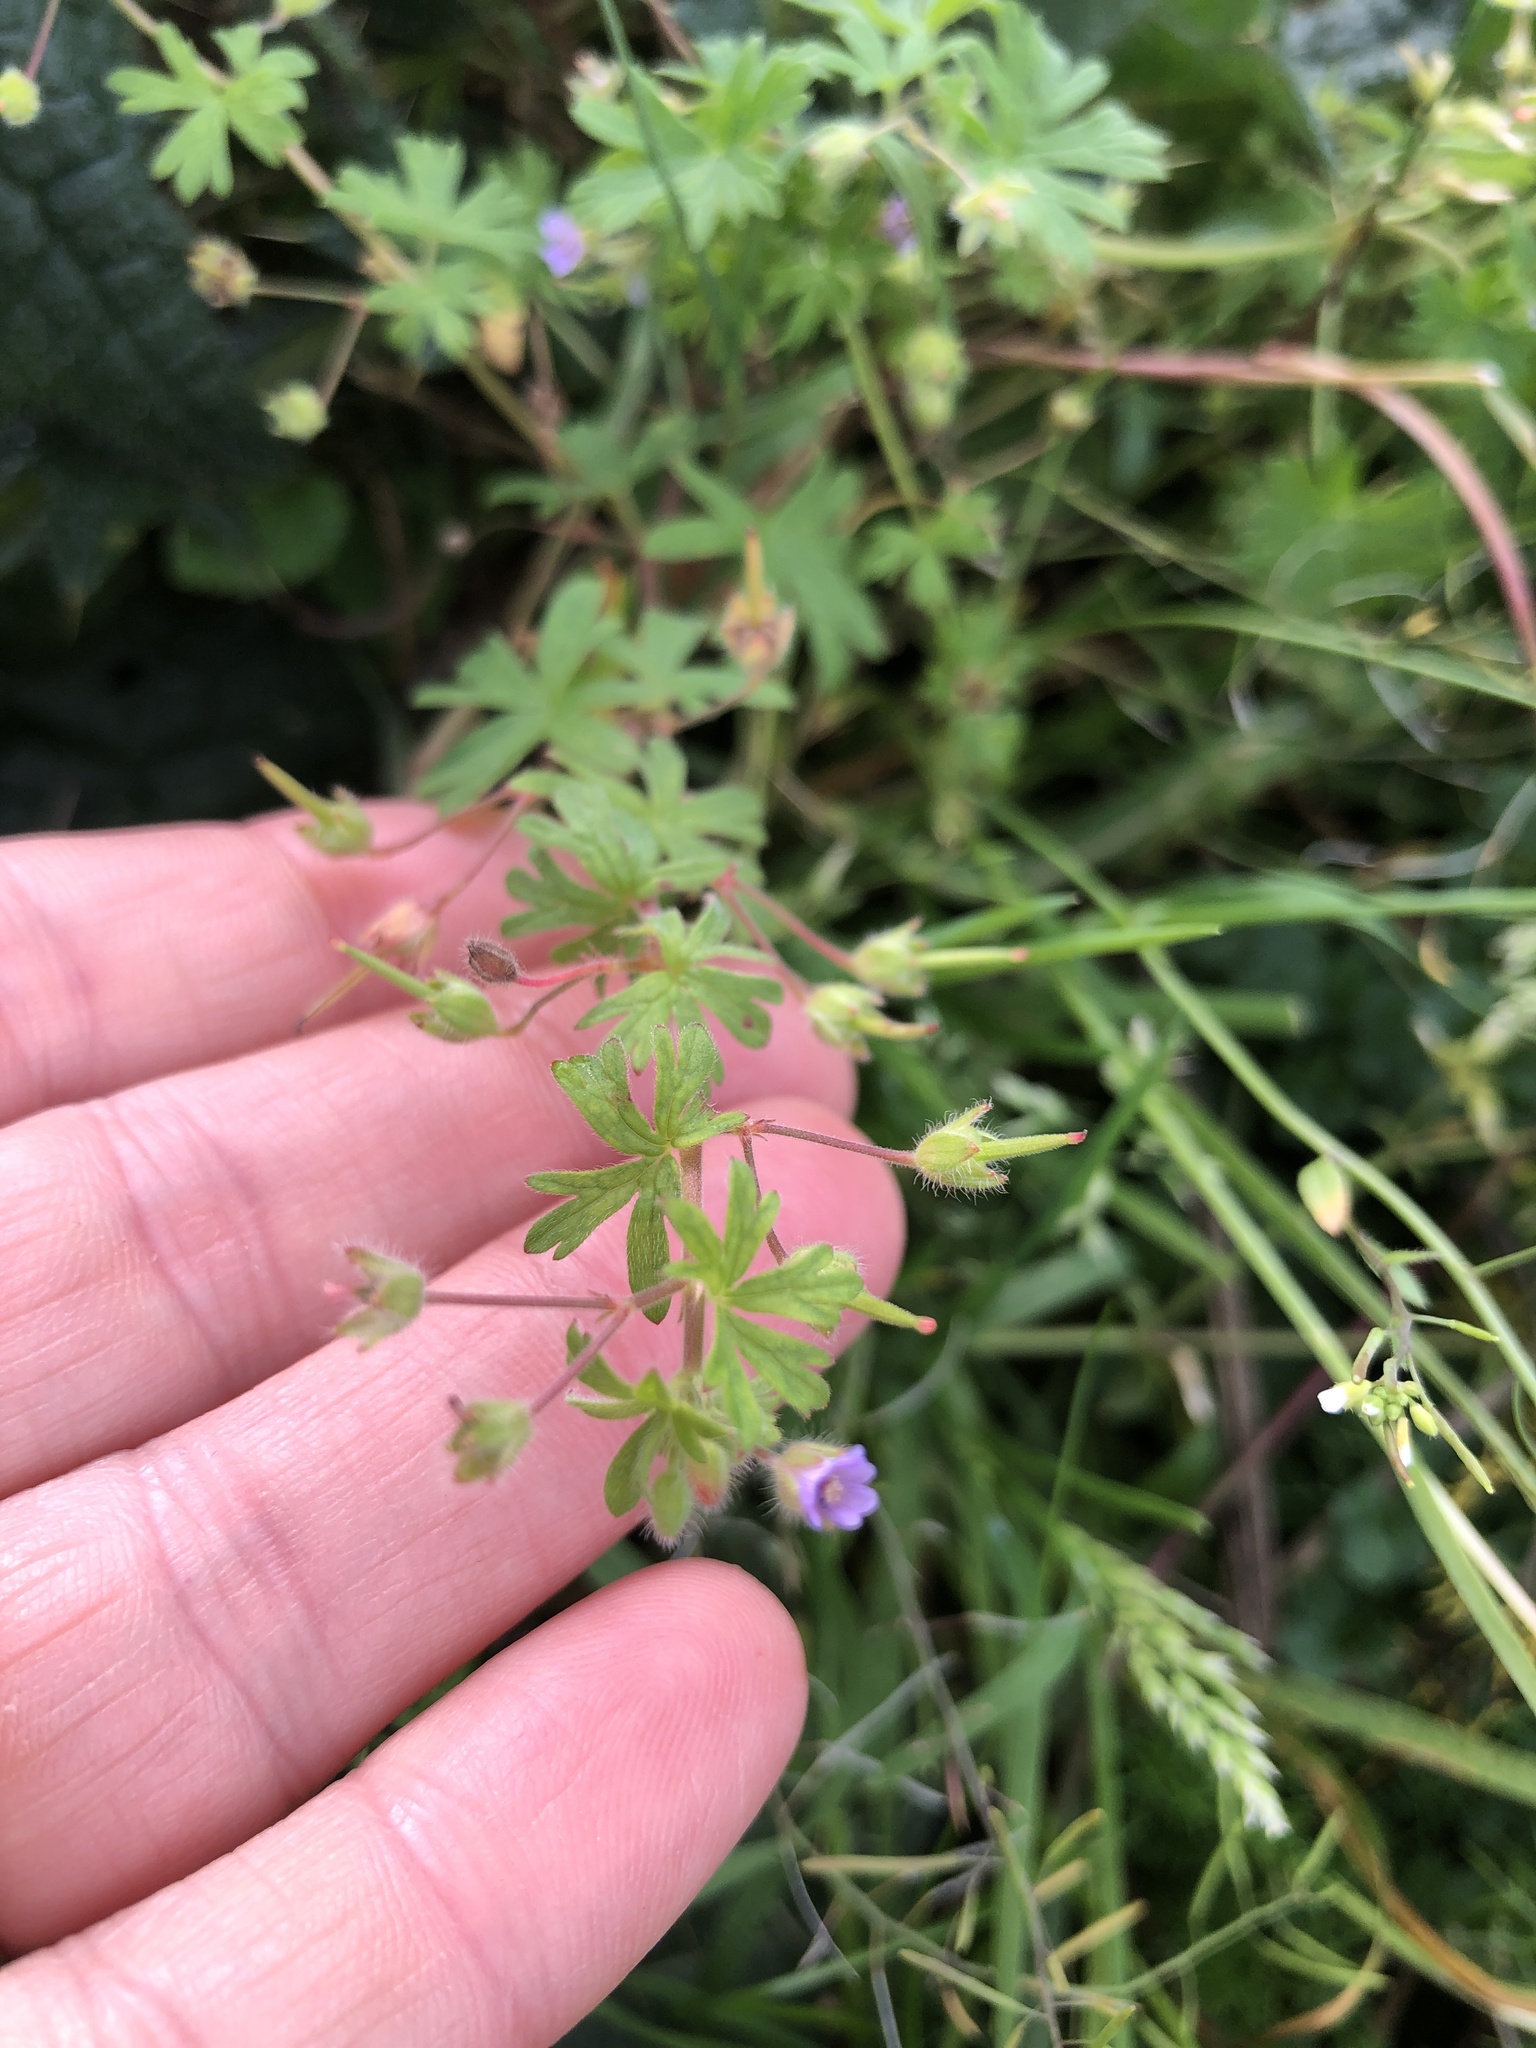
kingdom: Plantae
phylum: Tracheophyta
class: Magnoliopsida
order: Geraniales
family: Geraniaceae
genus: Geranium
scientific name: Geranium pusillum
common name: Small geranium
